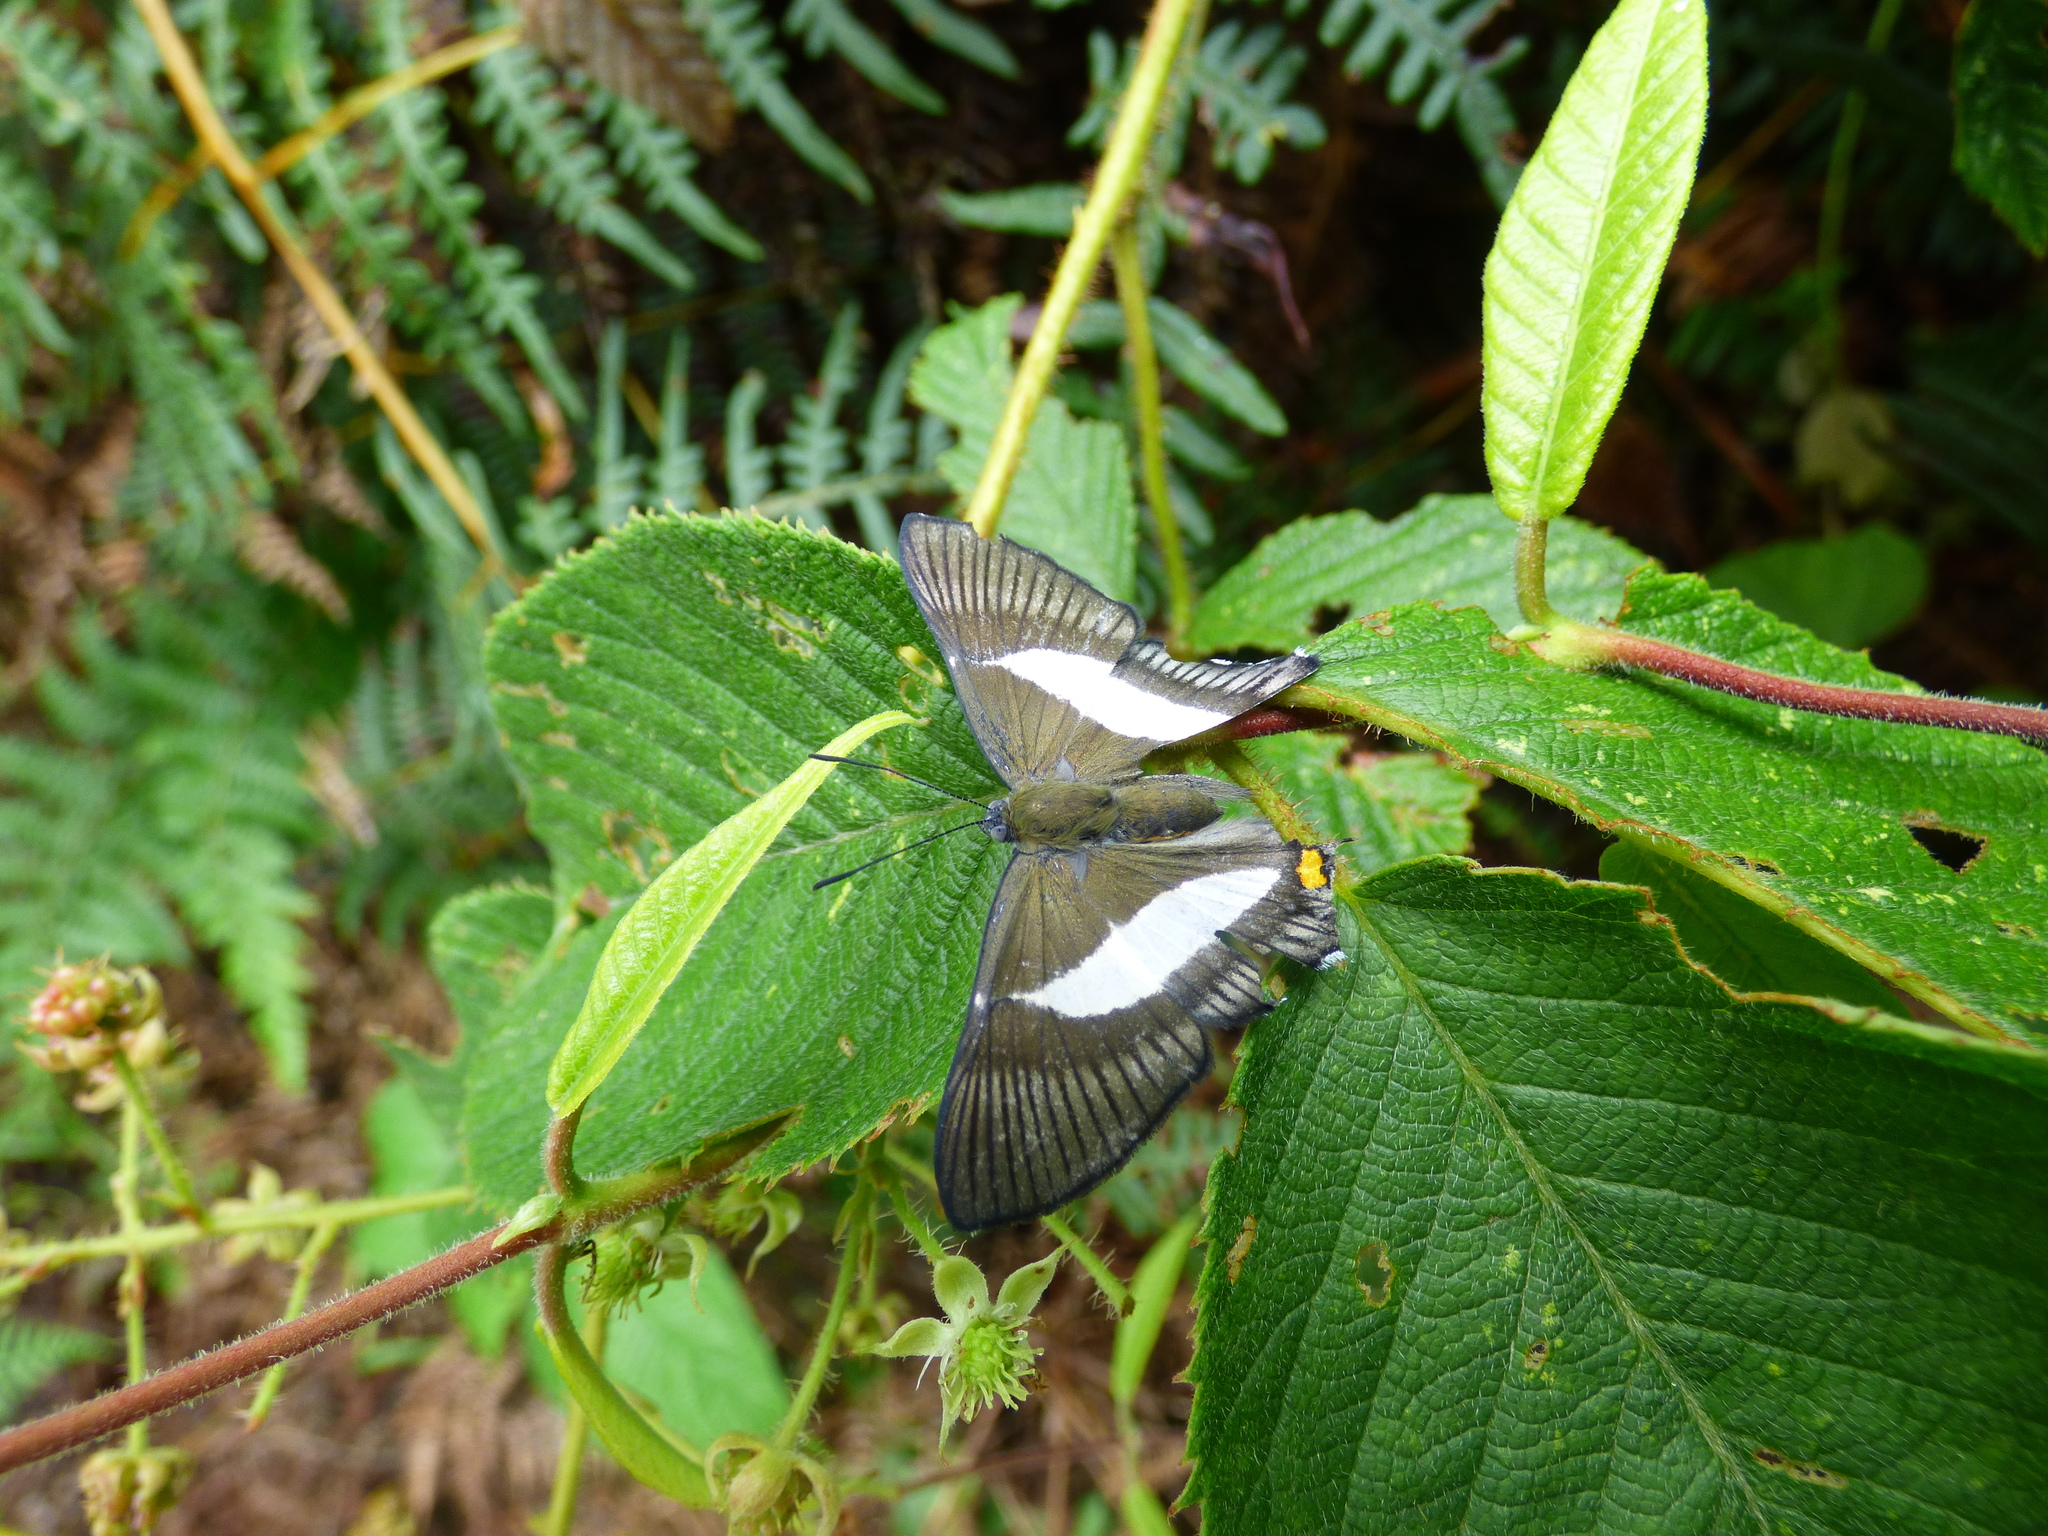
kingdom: Animalia
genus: Siseme
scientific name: Siseme pallas
